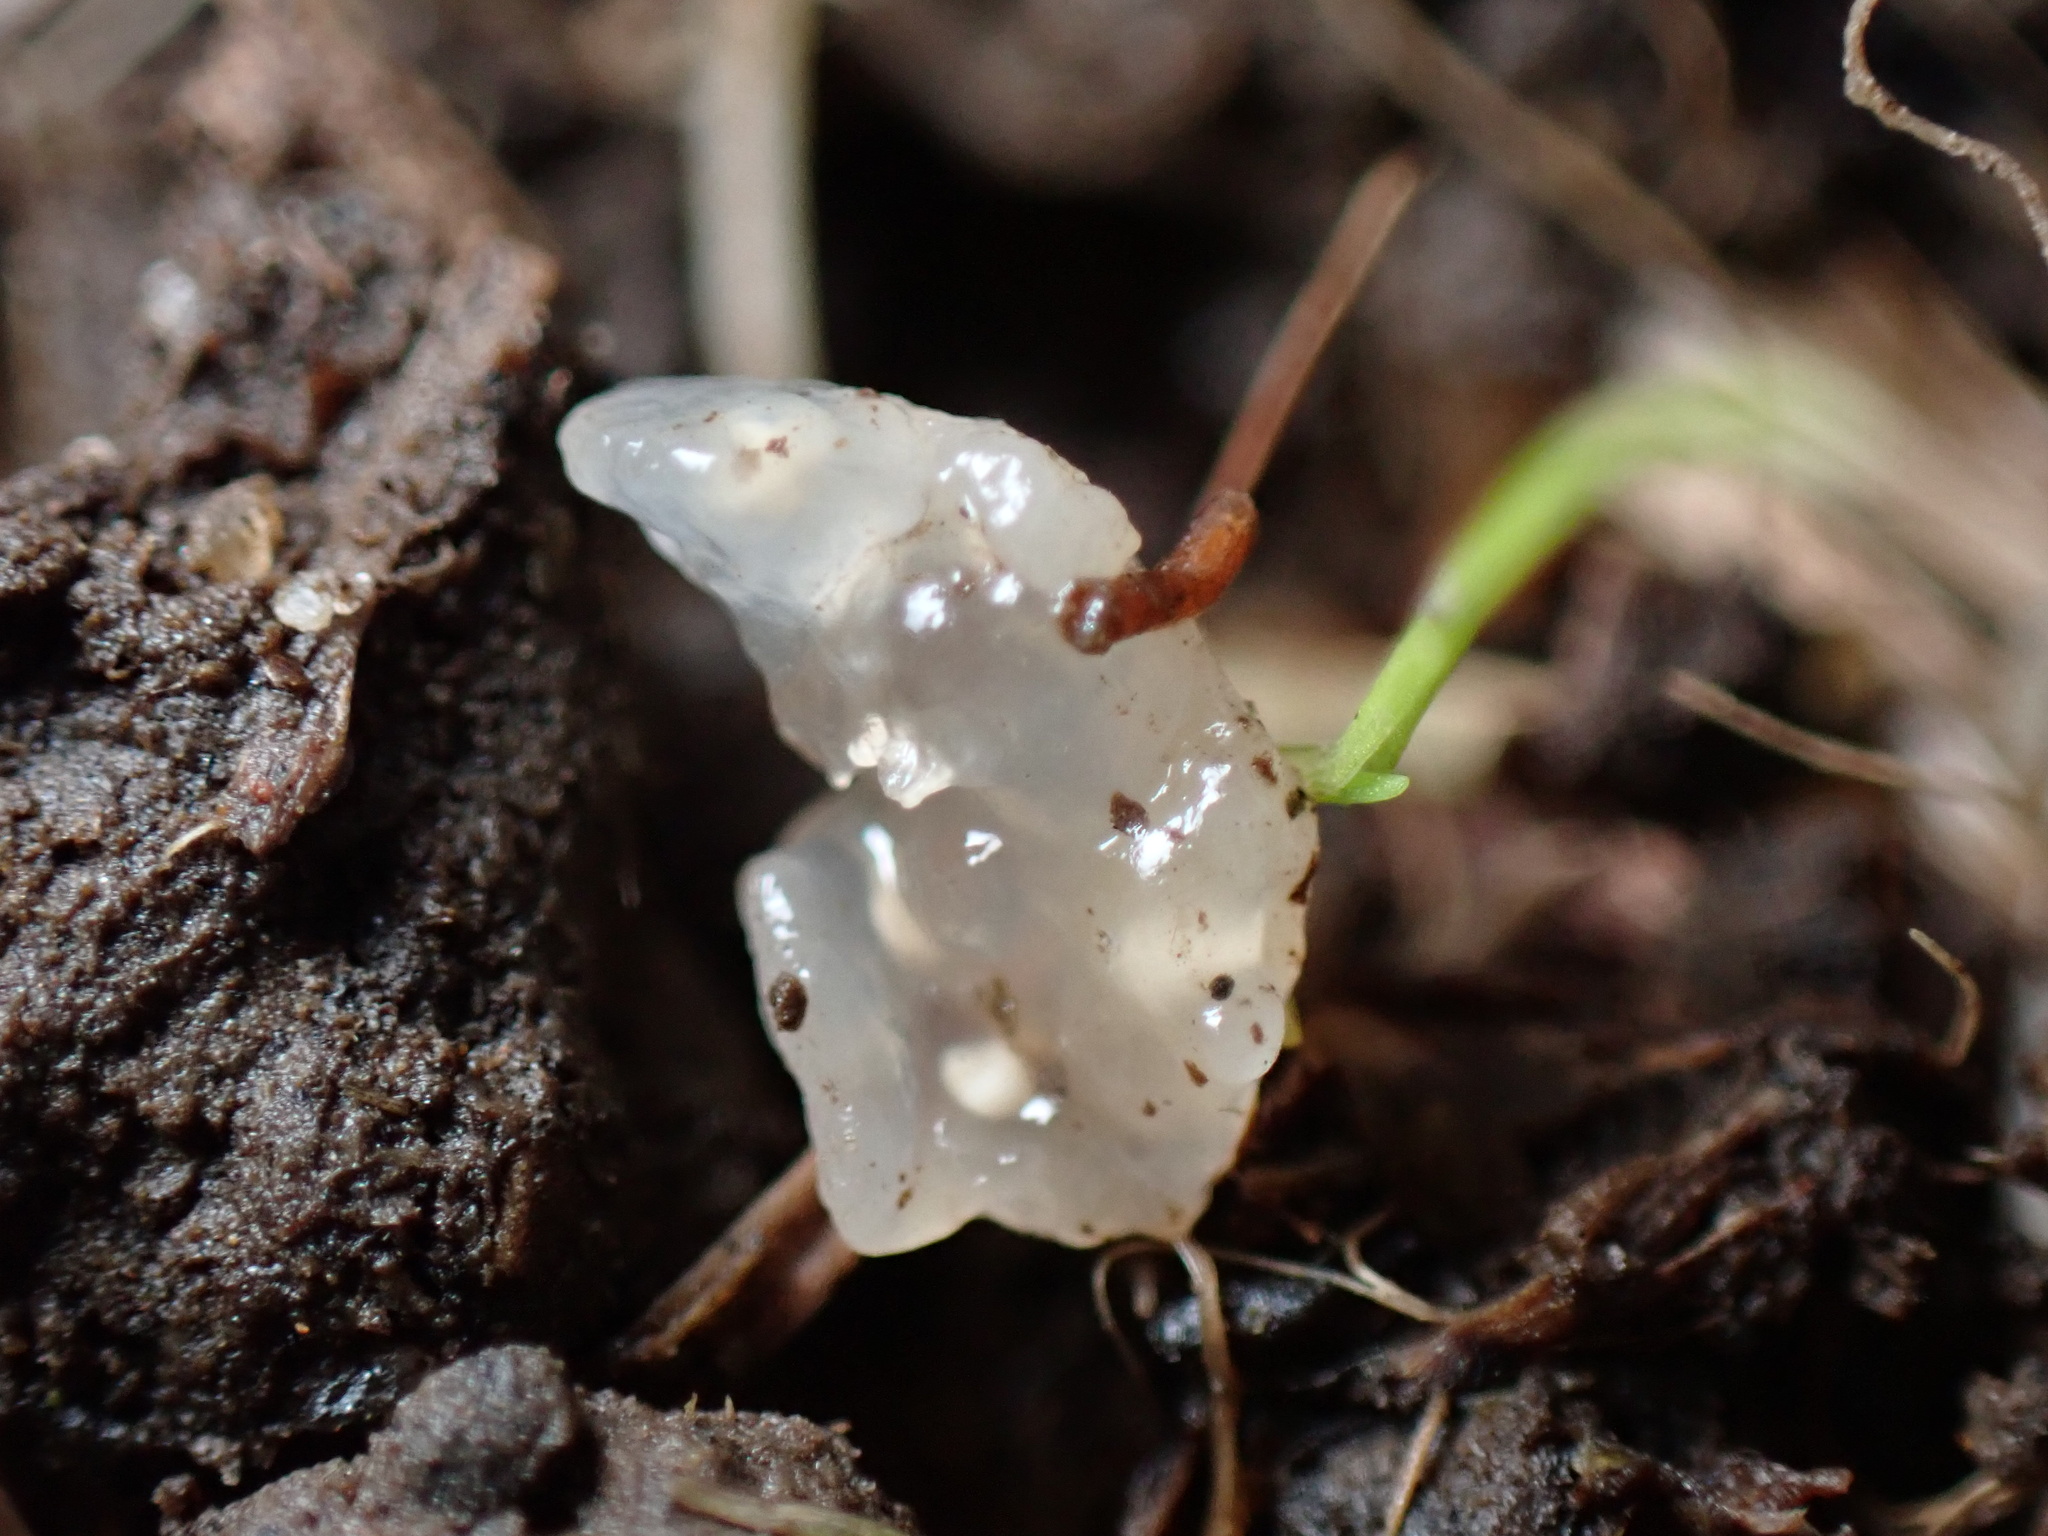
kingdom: Fungi
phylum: Basidiomycota
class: Agaricomycetes
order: Auriculariales
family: Hyaloriaceae
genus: Myxarium
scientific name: Myxarium nucleatum
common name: Crystal brain fungus
